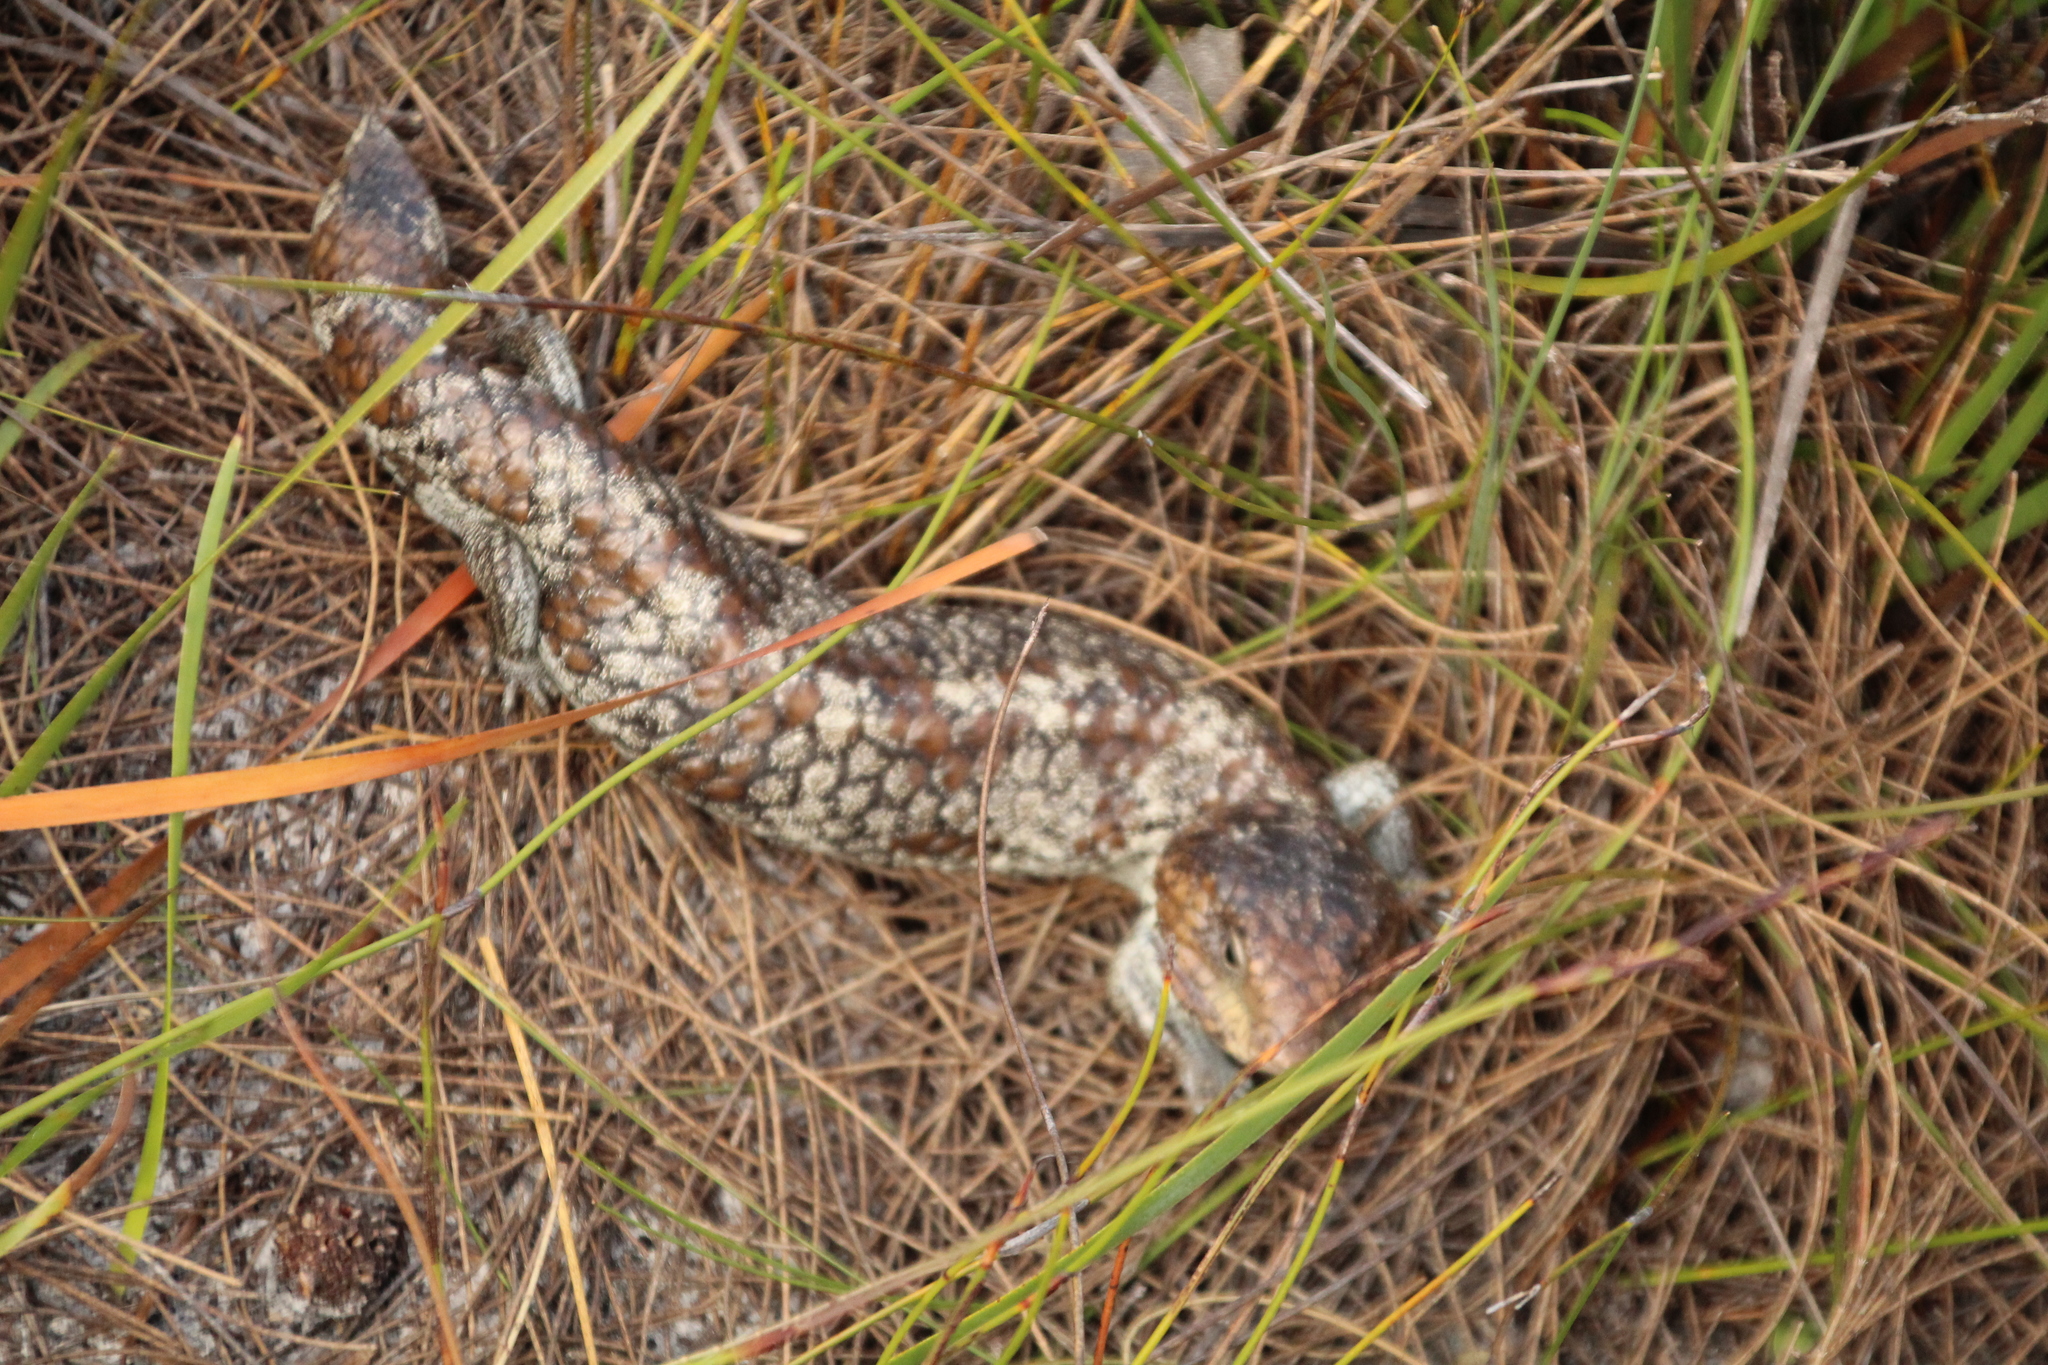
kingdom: Animalia
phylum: Chordata
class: Squamata
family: Scincidae
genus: Tiliqua
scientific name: Tiliqua rugosa
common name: Pinecone lizard
